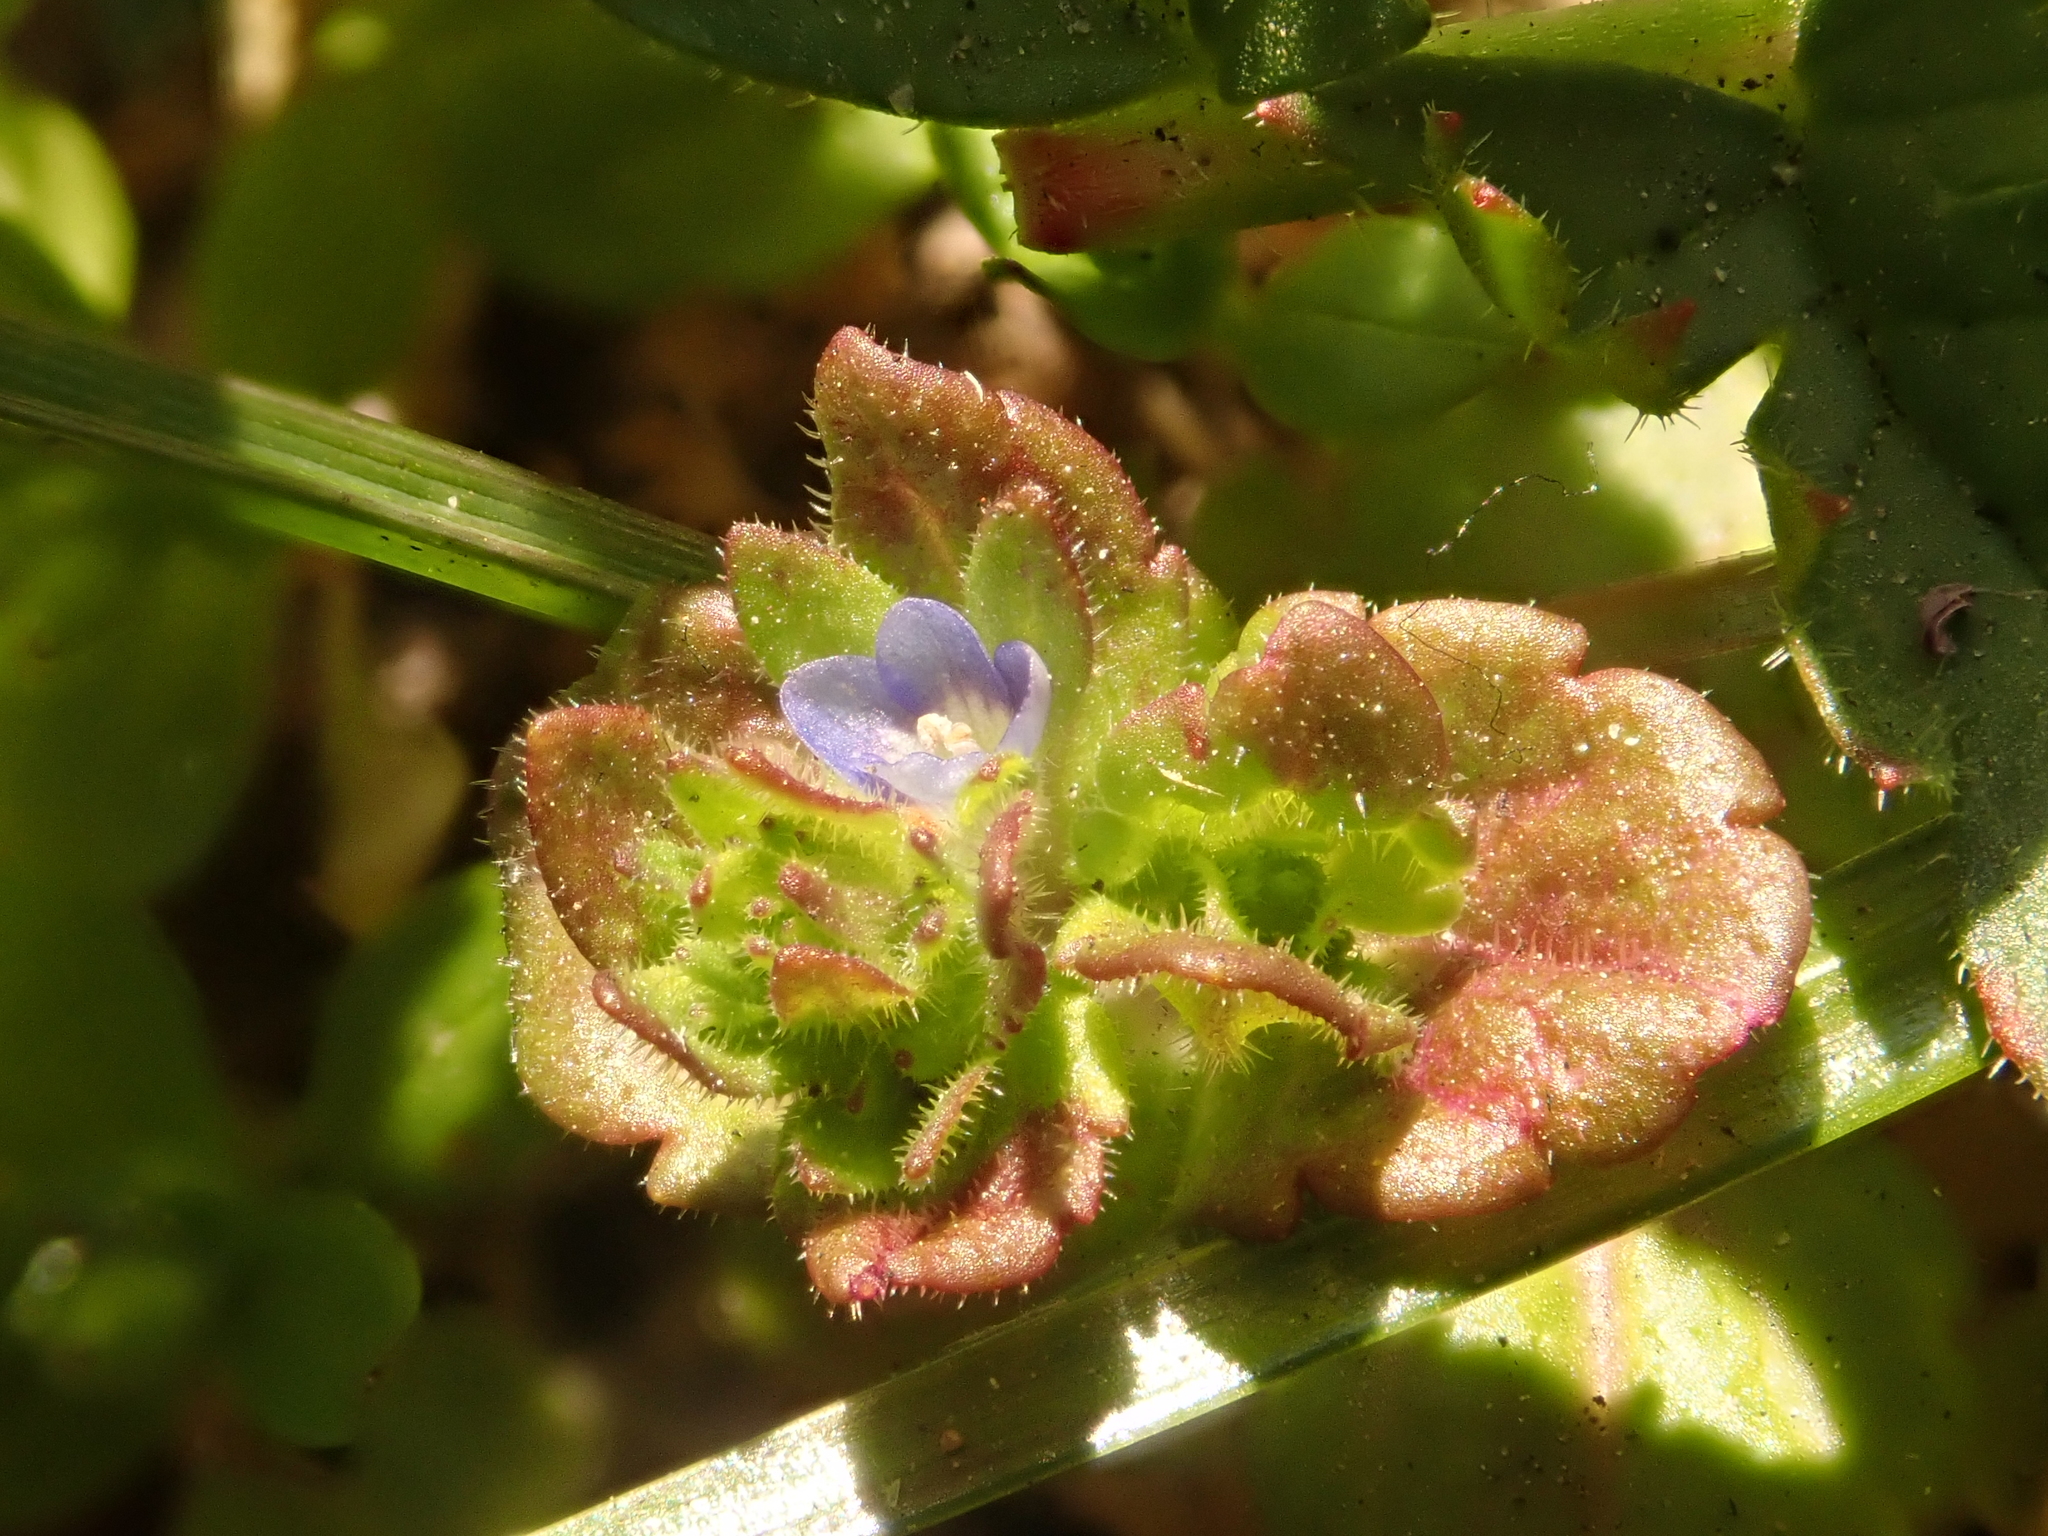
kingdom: Plantae
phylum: Tracheophyta
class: Magnoliopsida
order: Lamiales
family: Plantaginaceae
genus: Veronica
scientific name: Veronica arvensis
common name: Corn speedwell
